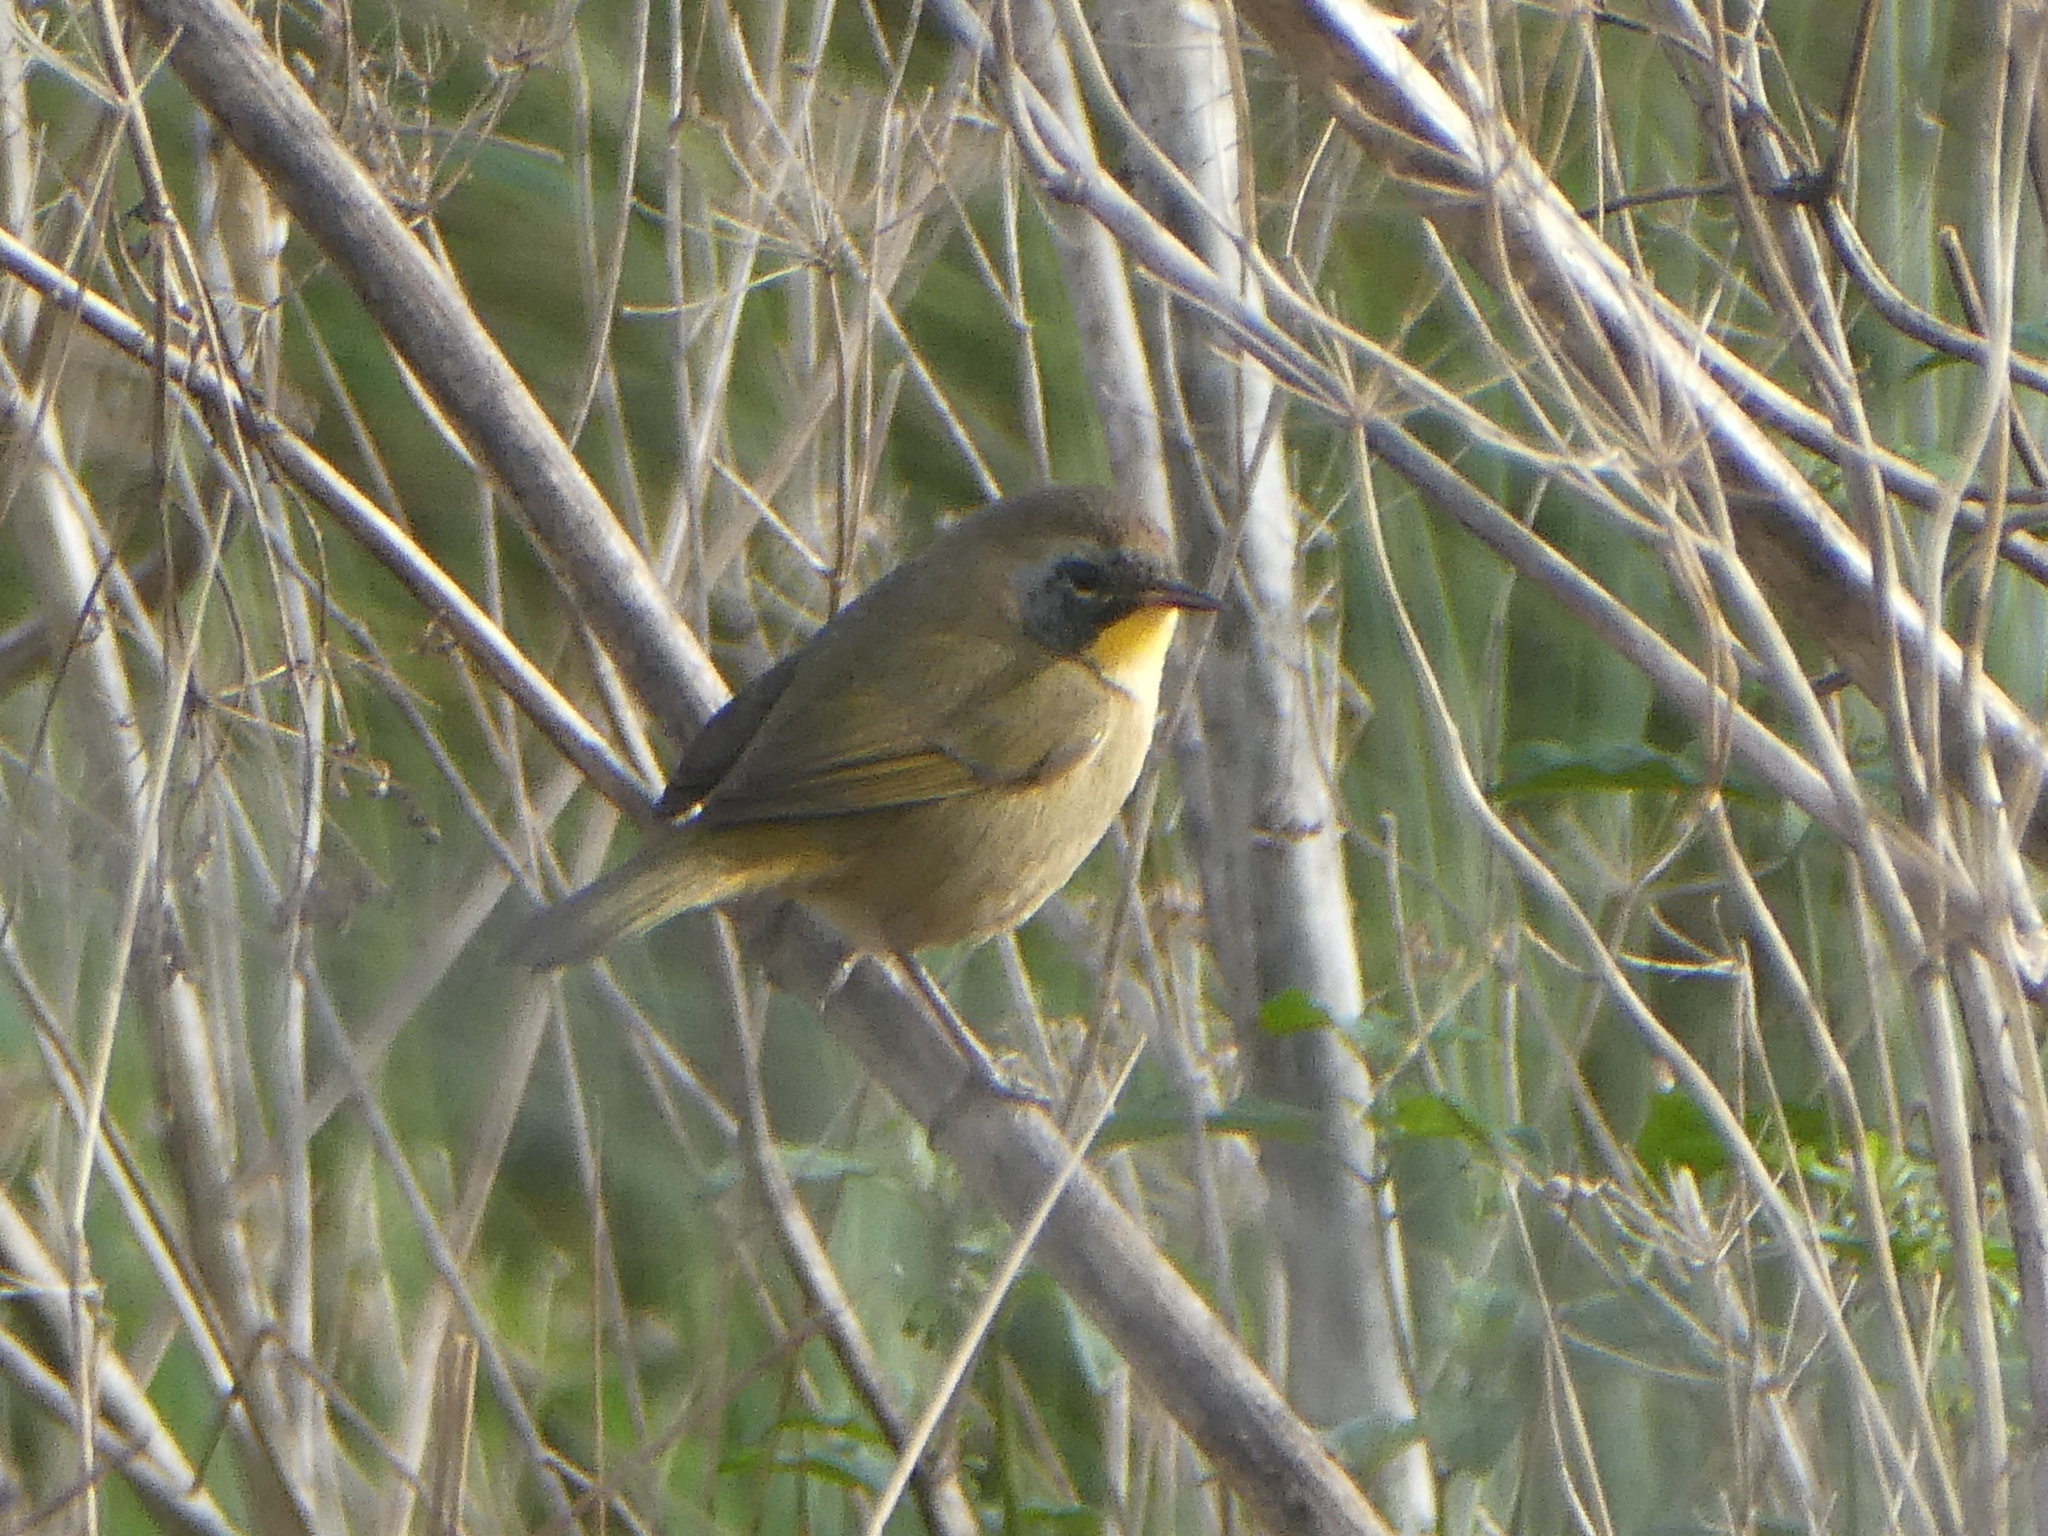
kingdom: Animalia
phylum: Chordata
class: Aves
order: Passeriformes
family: Parulidae
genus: Geothlypis
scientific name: Geothlypis trichas
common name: Common yellowthroat
